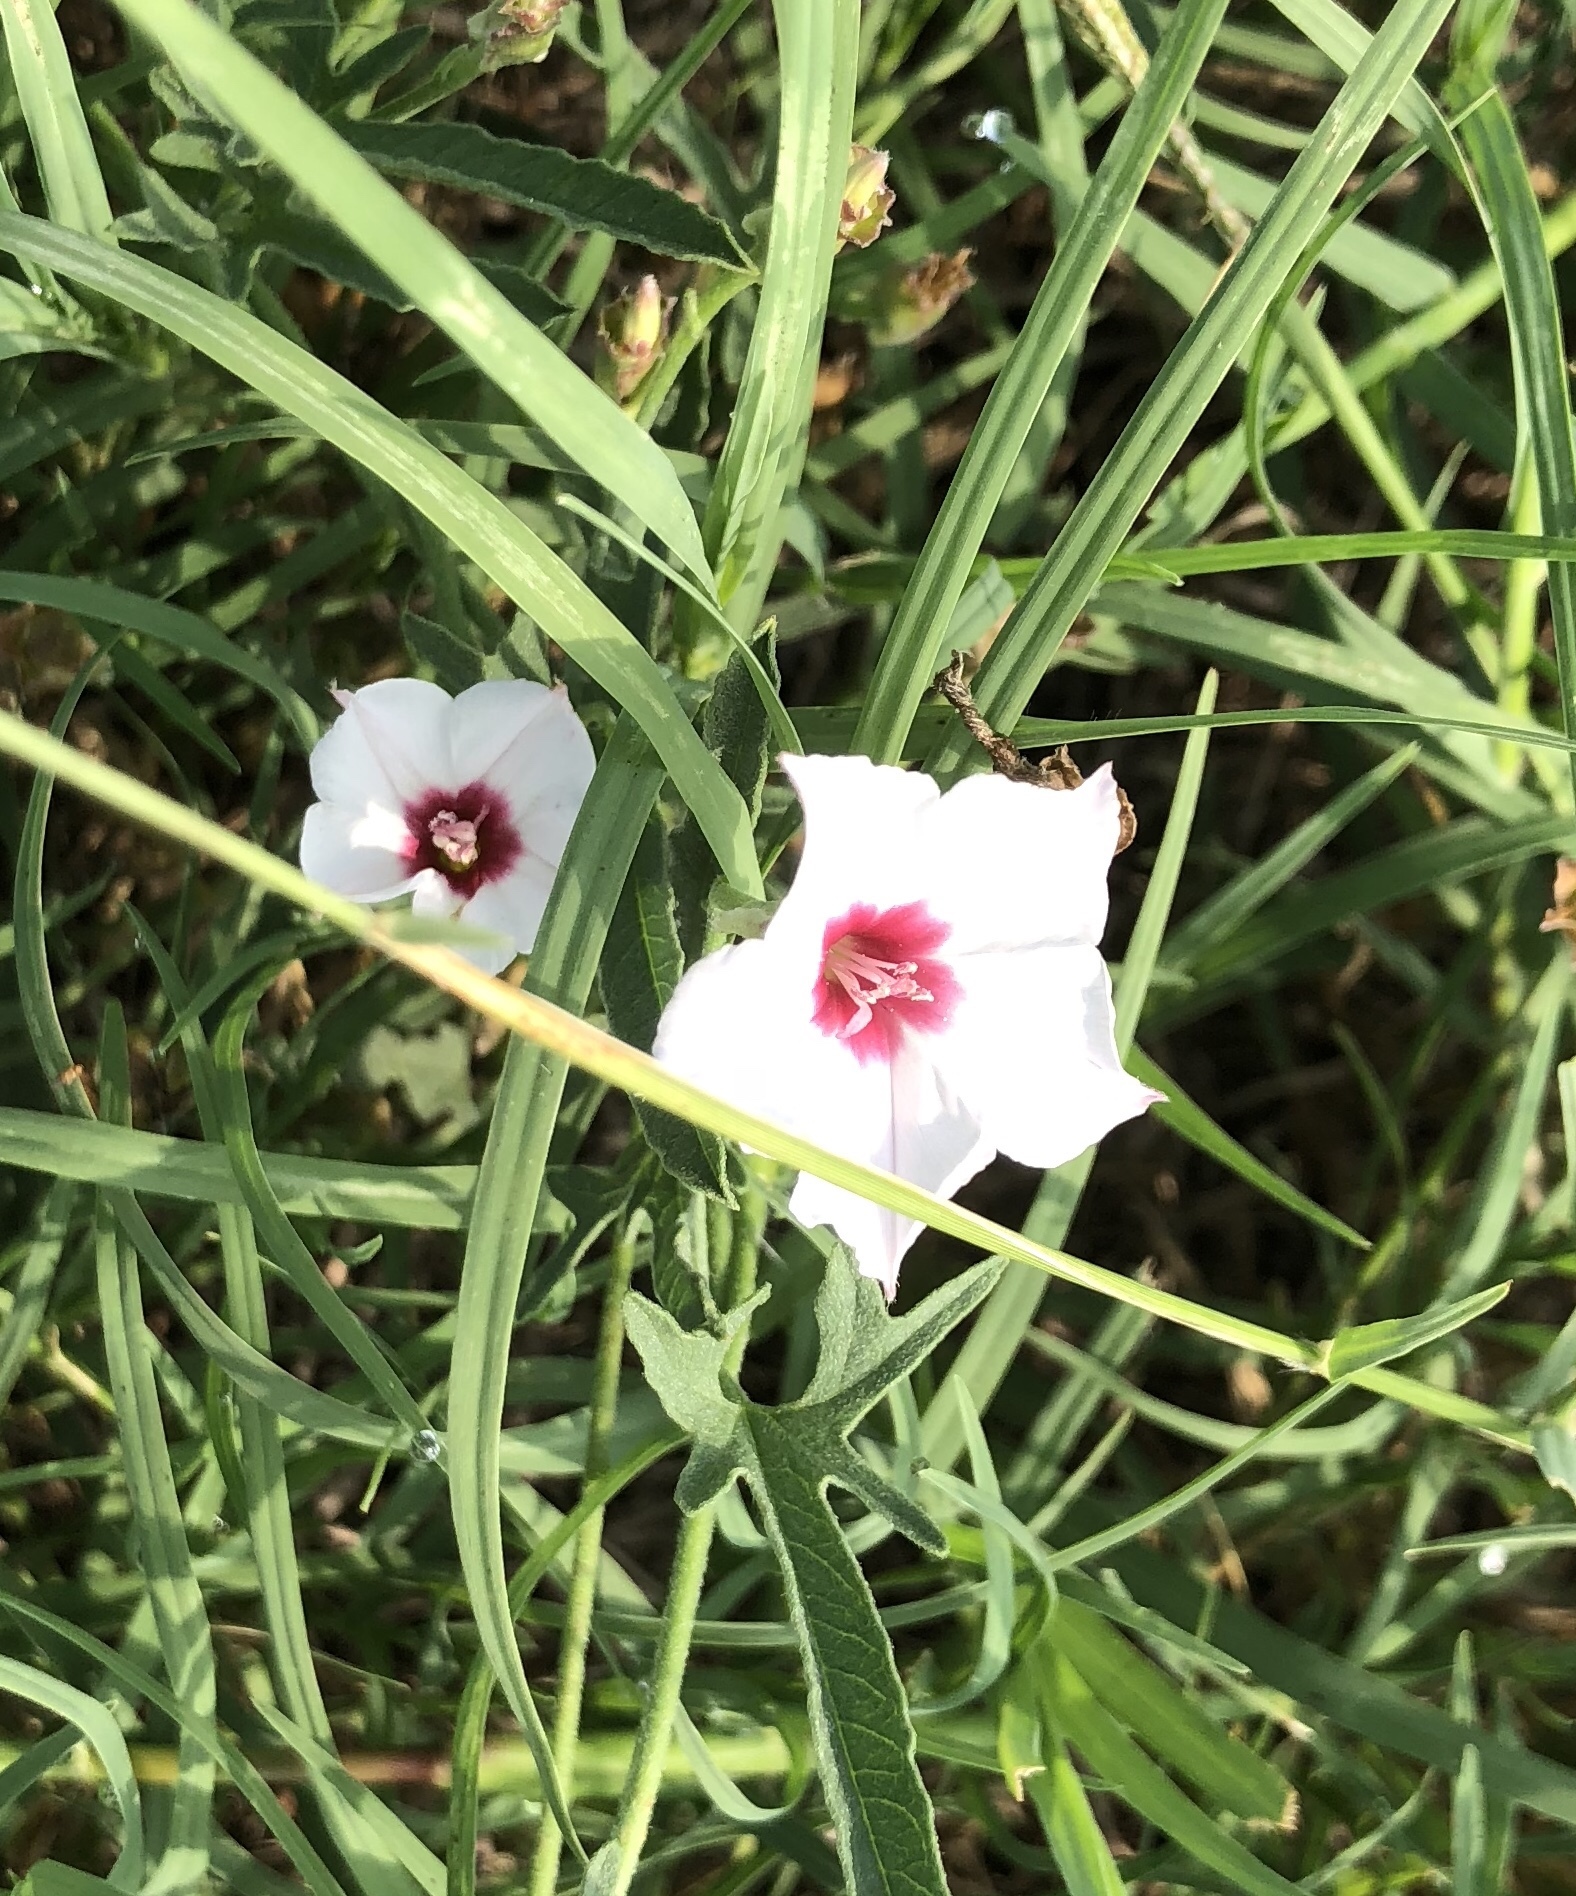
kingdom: Plantae
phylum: Tracheophyta
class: Magnoliopsida
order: Solanales
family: Convolvulaceae
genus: Convolvulus
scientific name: Convolvulus equitans
